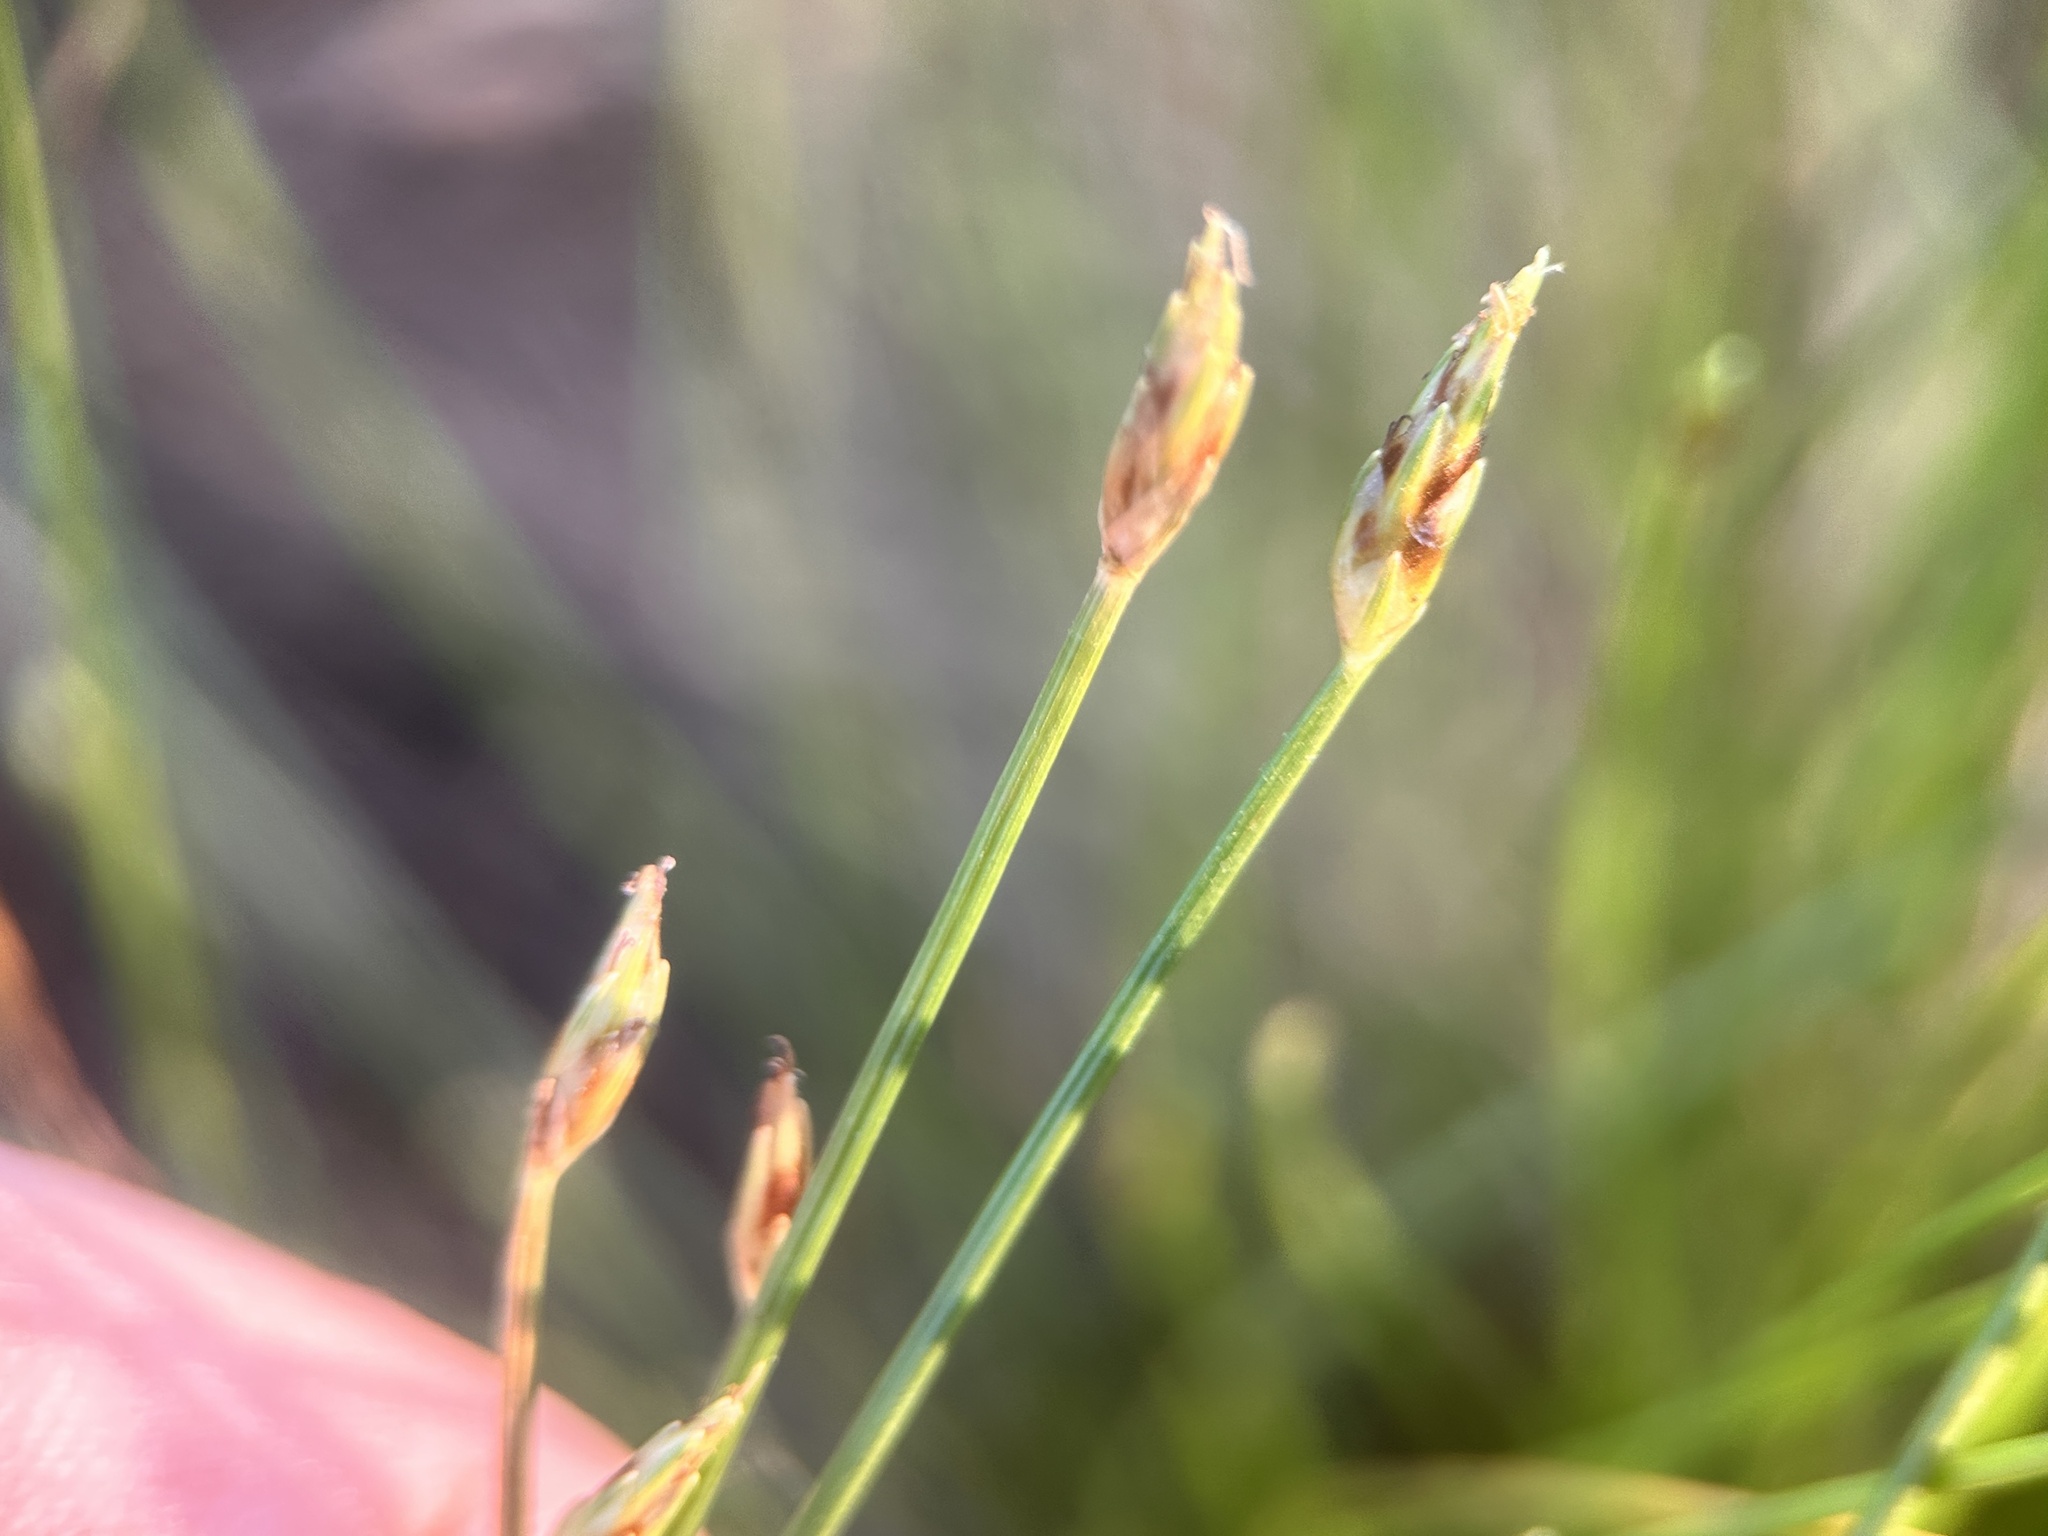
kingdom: Plantae
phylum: Tracheophyta
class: Liliopsida
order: Poales
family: Cyperaceae
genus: Fimbristylis
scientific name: Fimbristylis acuminata
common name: Pointed fimbristylis
